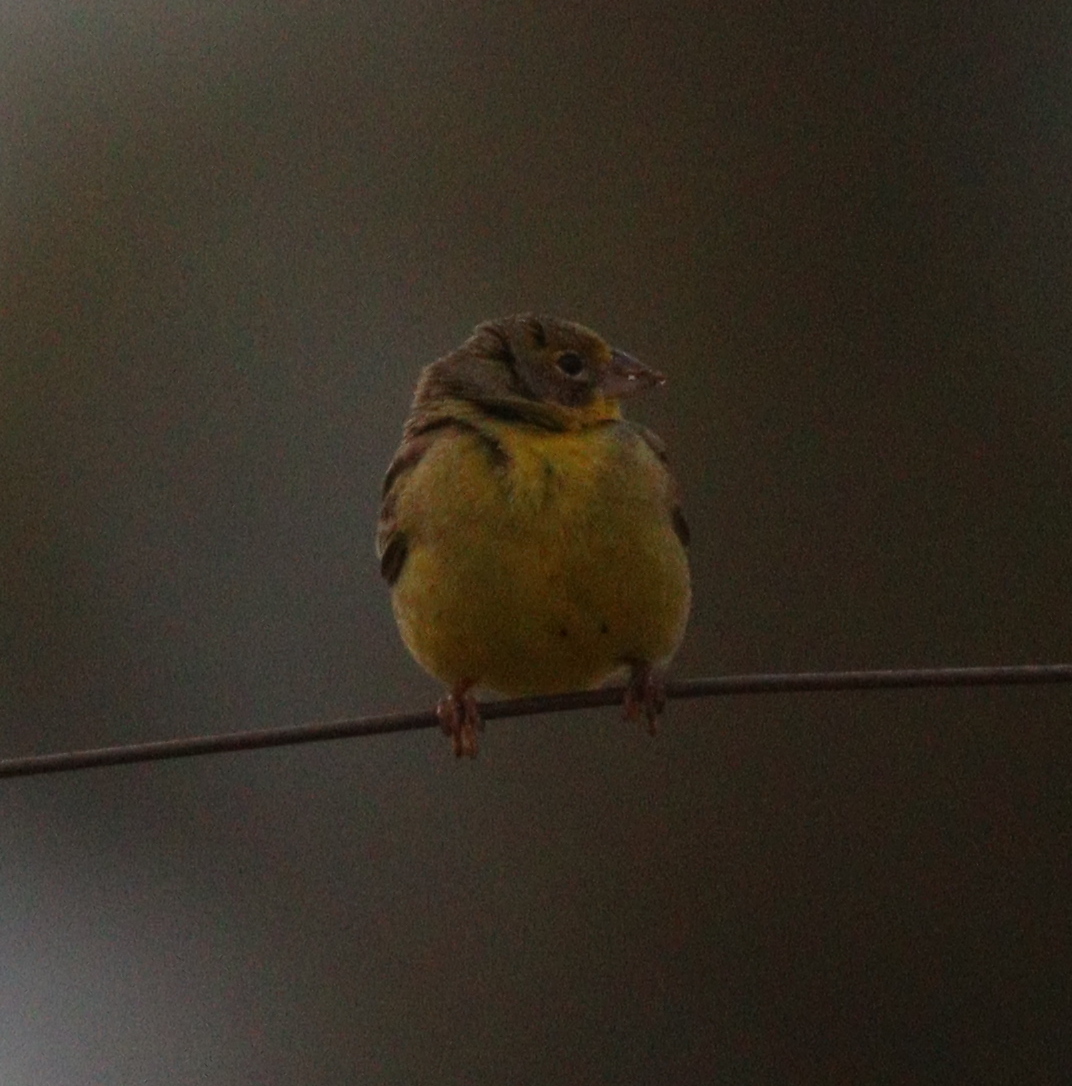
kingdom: Animalia
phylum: Chordata
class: Aves
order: Passeriformes
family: Thraupidae
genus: Sicalis
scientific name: Sicalis luteola
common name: Grassland yellow-finch
